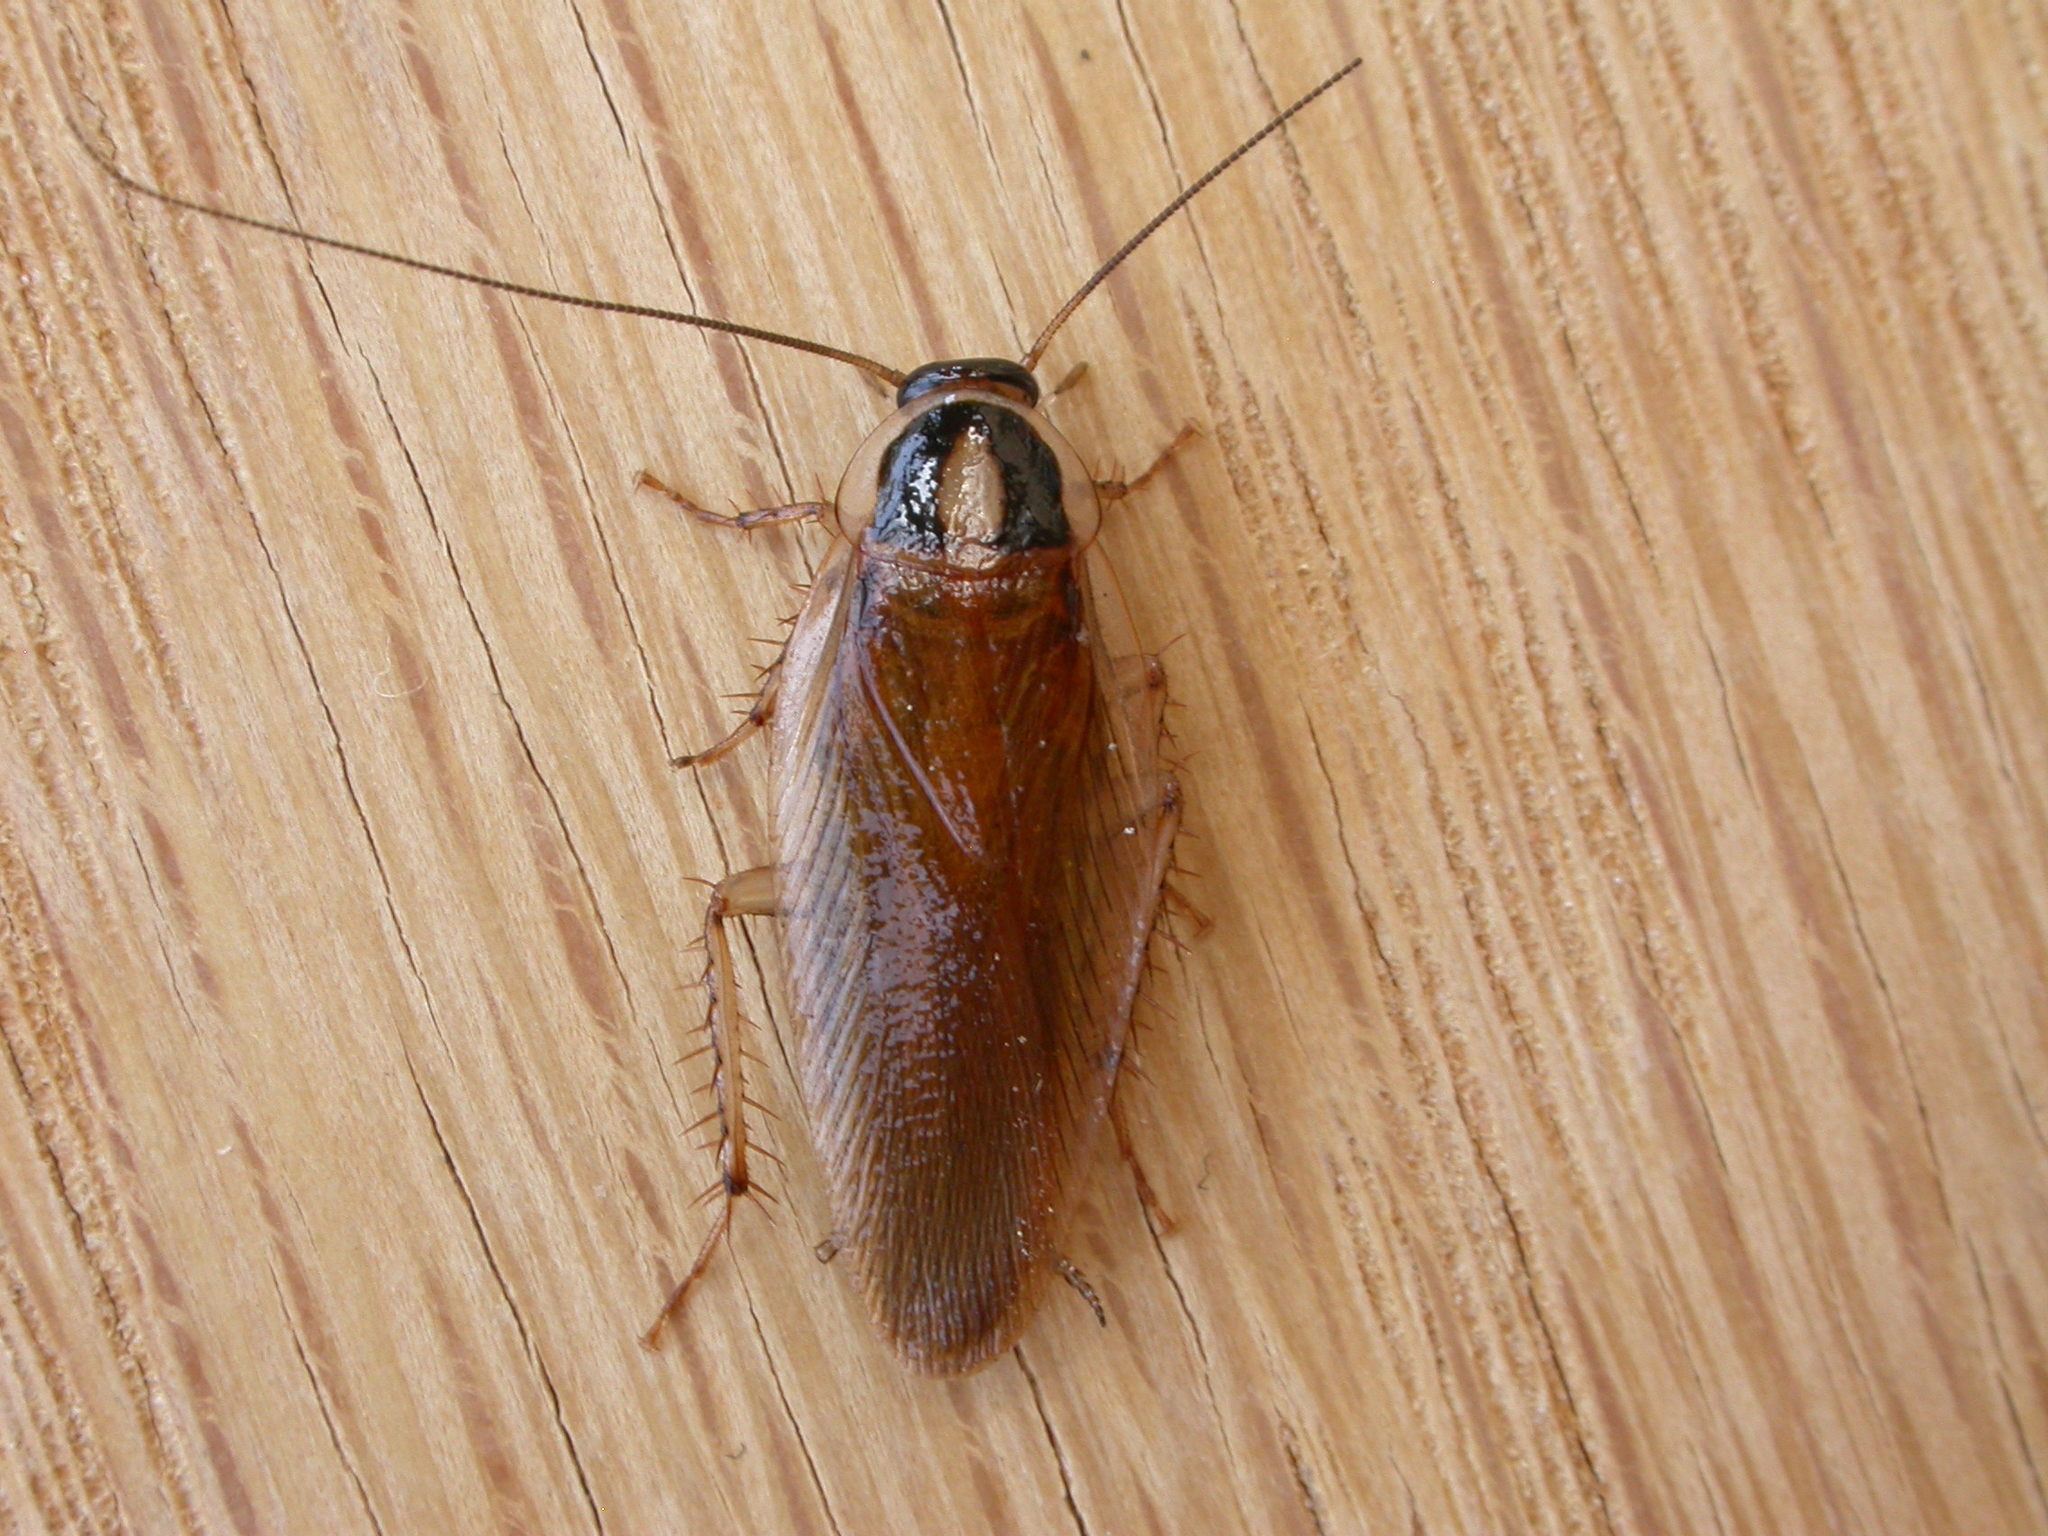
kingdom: Animalia
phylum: Arthropoda
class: Insecta
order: Blattodea
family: Ectobiidae
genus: Johnrehnia
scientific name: Johnrehnia australiae
